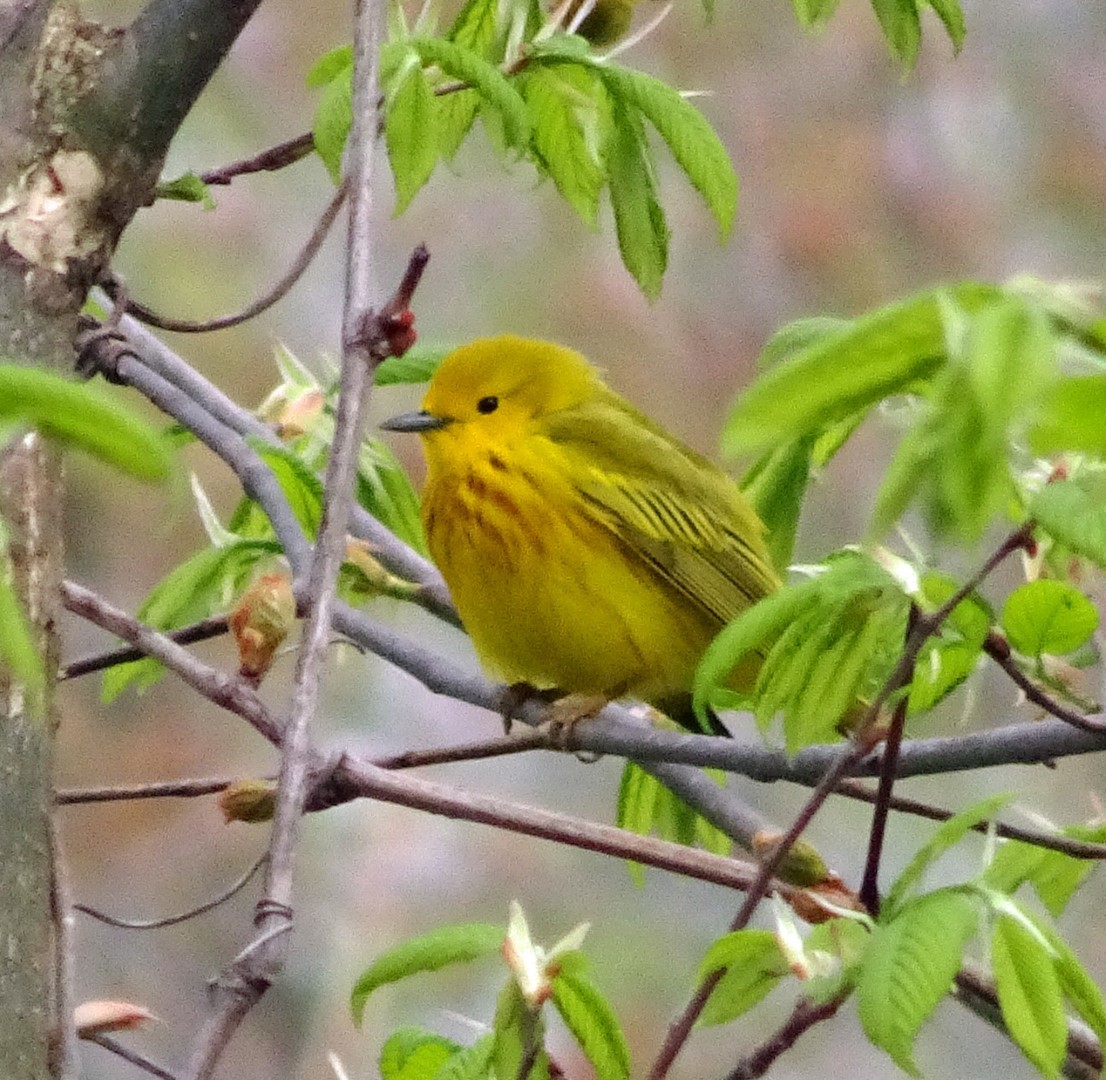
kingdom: Animalia
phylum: Chordata
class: Aves
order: Passeriformes
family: Parulidae
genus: Setophaga
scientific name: Setophaga petechia
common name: Yellow warbler
